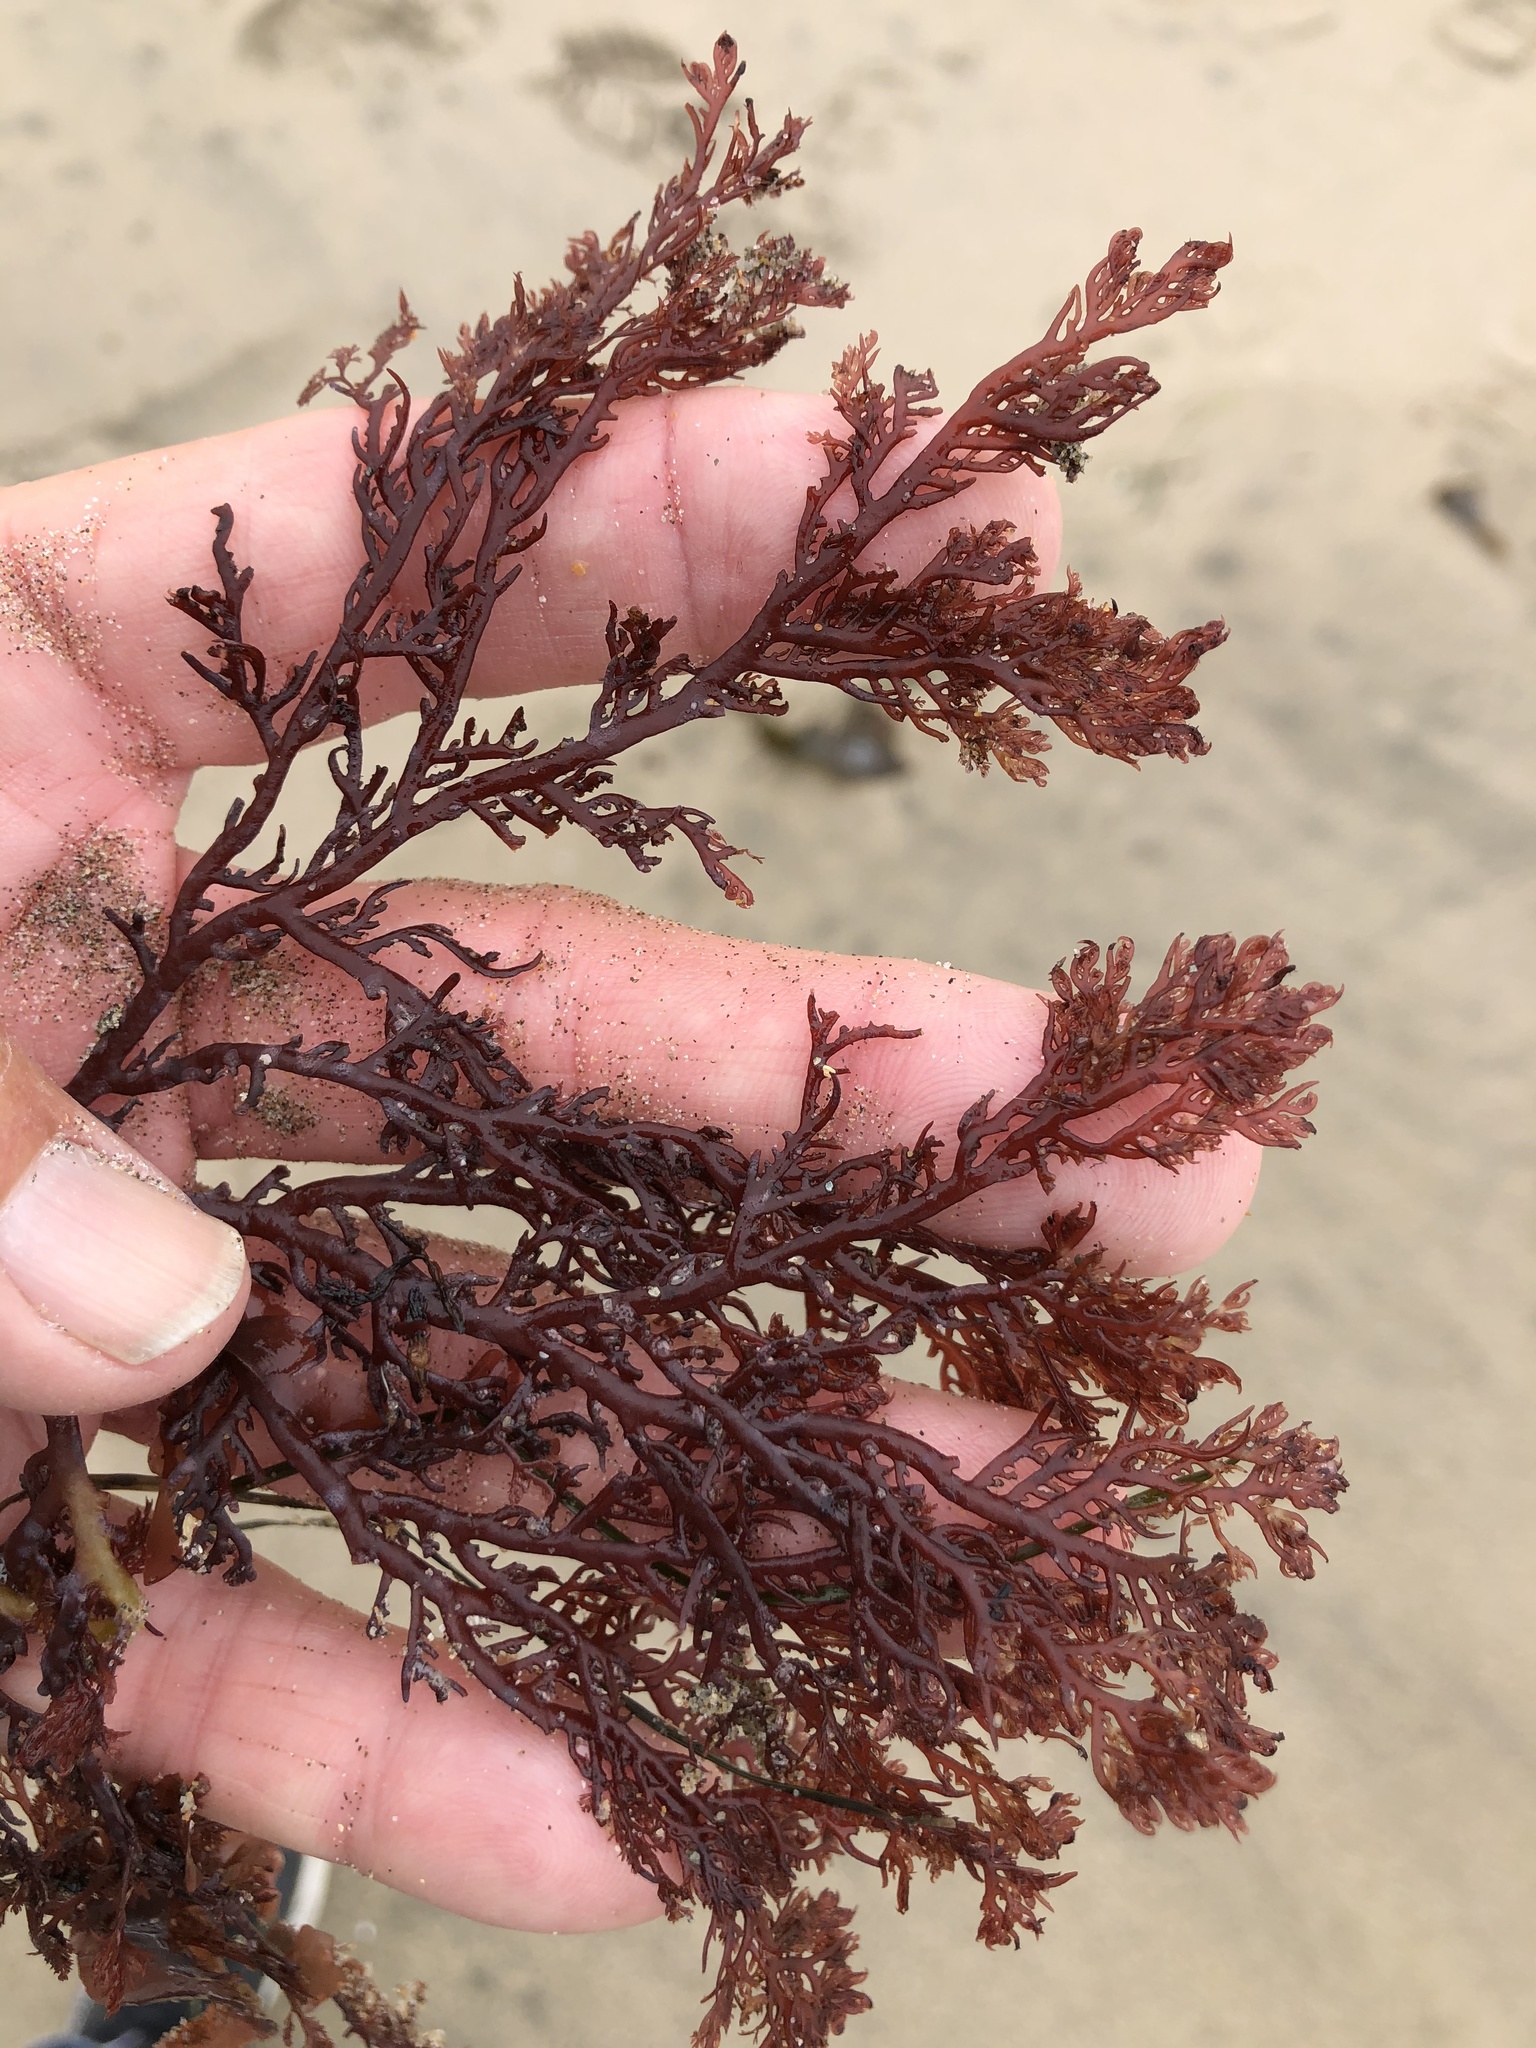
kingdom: Plantae
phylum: Rhodophyta
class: Florideophyceae
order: Plocamiales
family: Plocamiaceae
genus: Plocamium
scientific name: Plocamium cartilagineum
